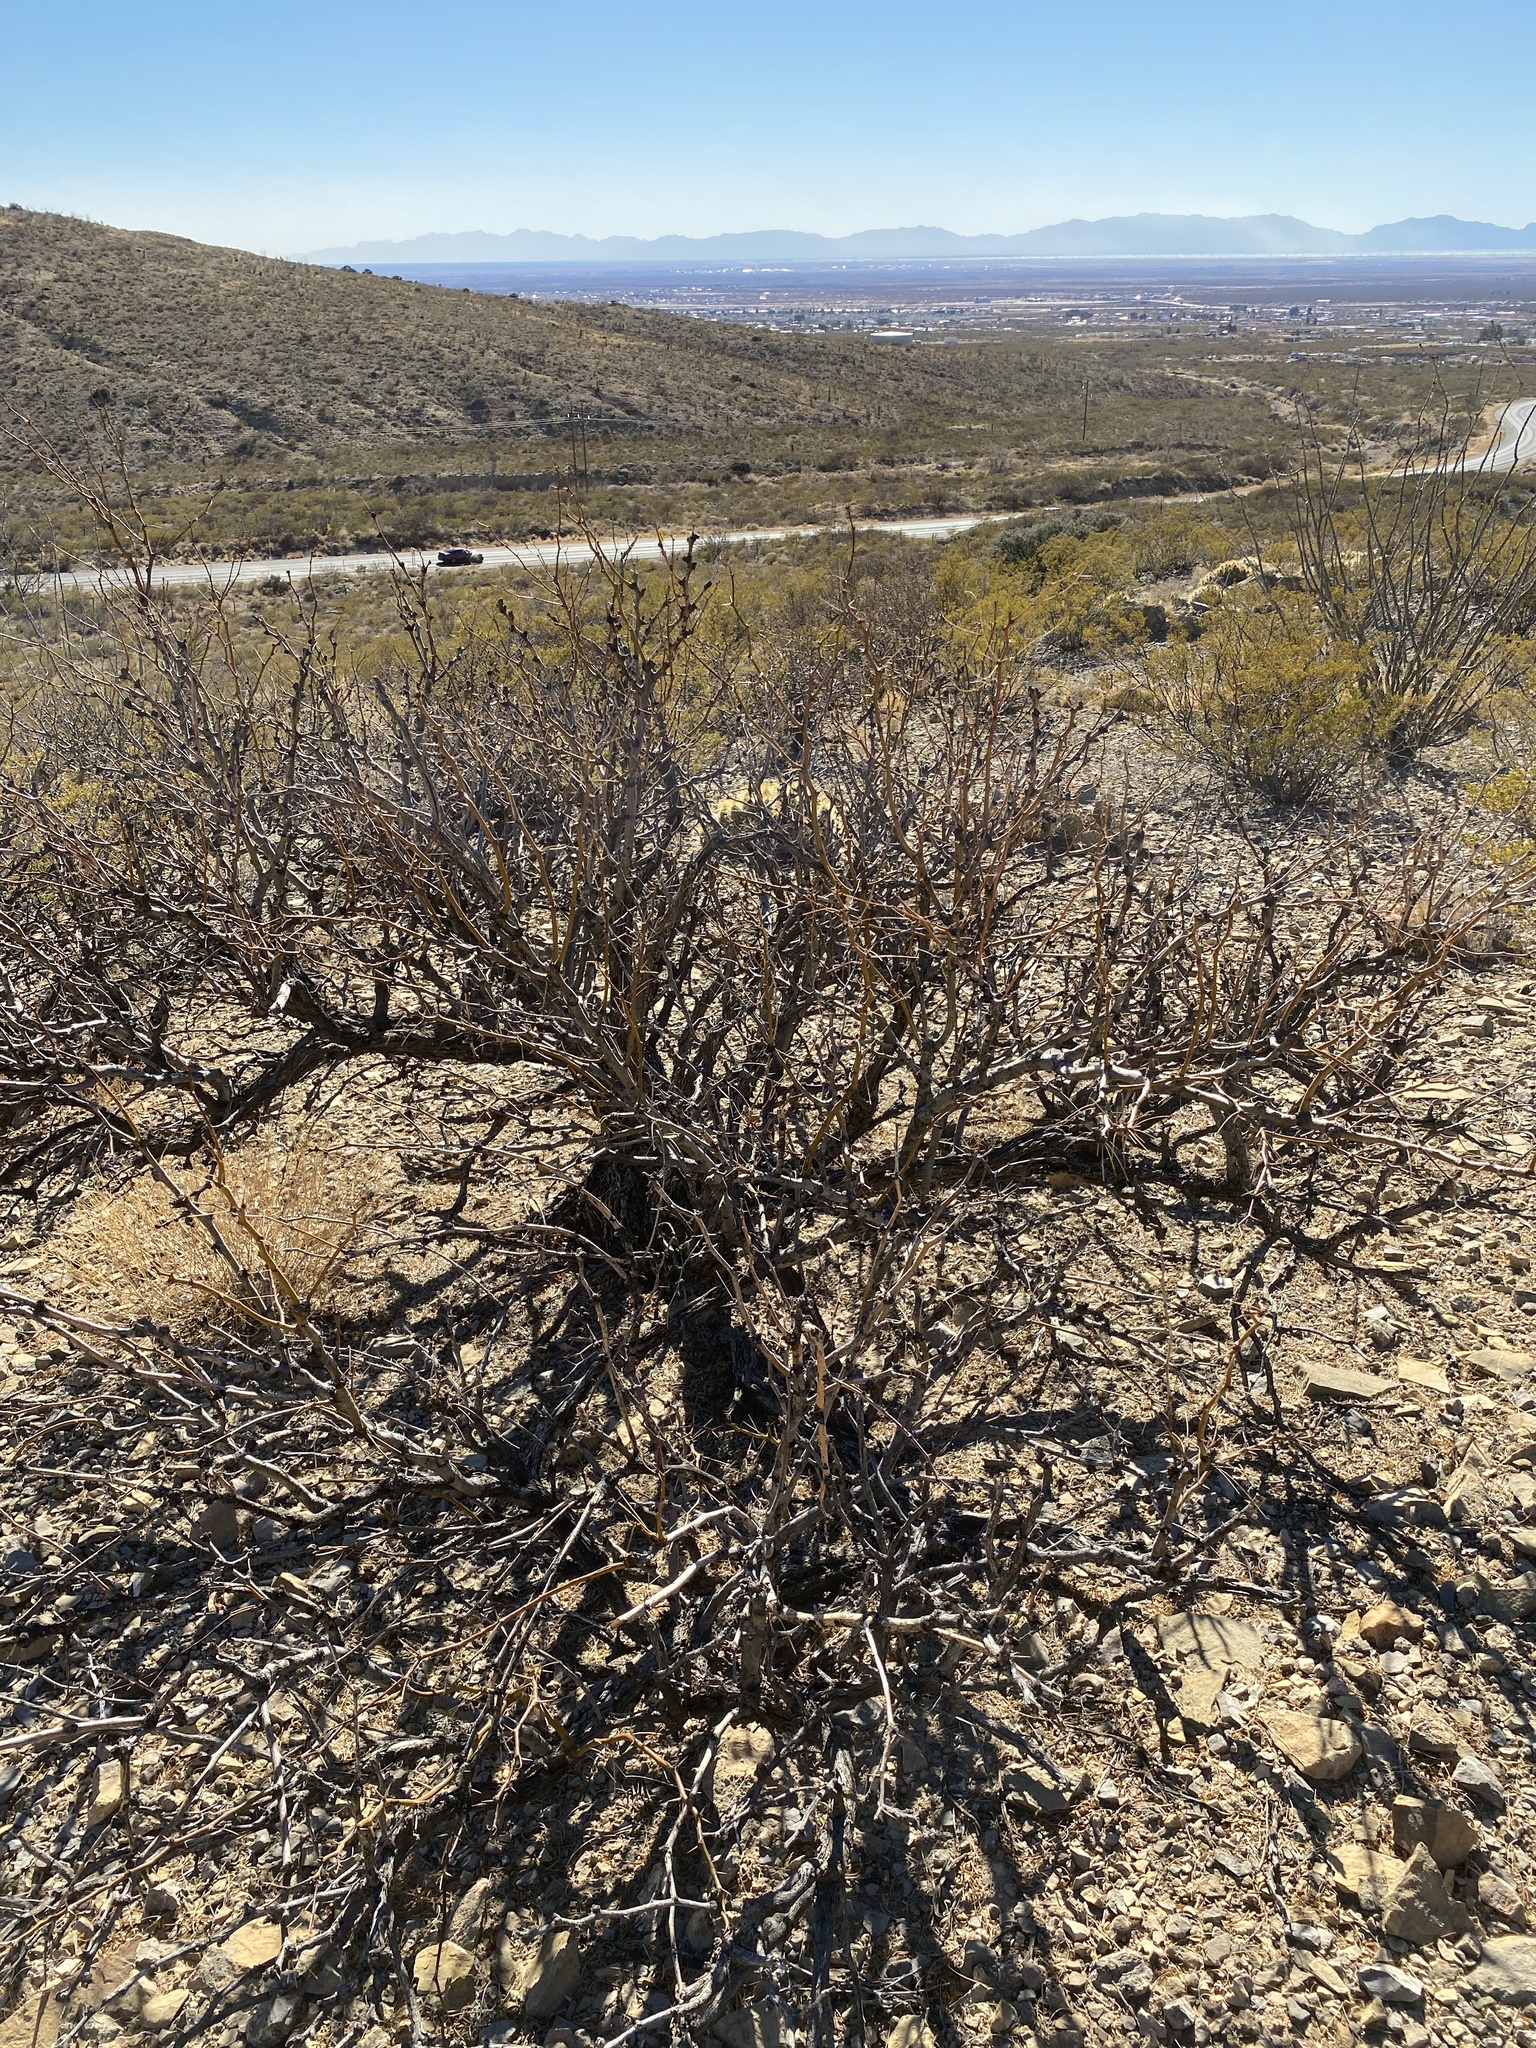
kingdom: Plantae
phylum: Tracheophyta
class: Magnoliopsida
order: Fabales
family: Fabaceae
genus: Prosopis
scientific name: Prosopis glandulosa
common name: Honey mesquite
